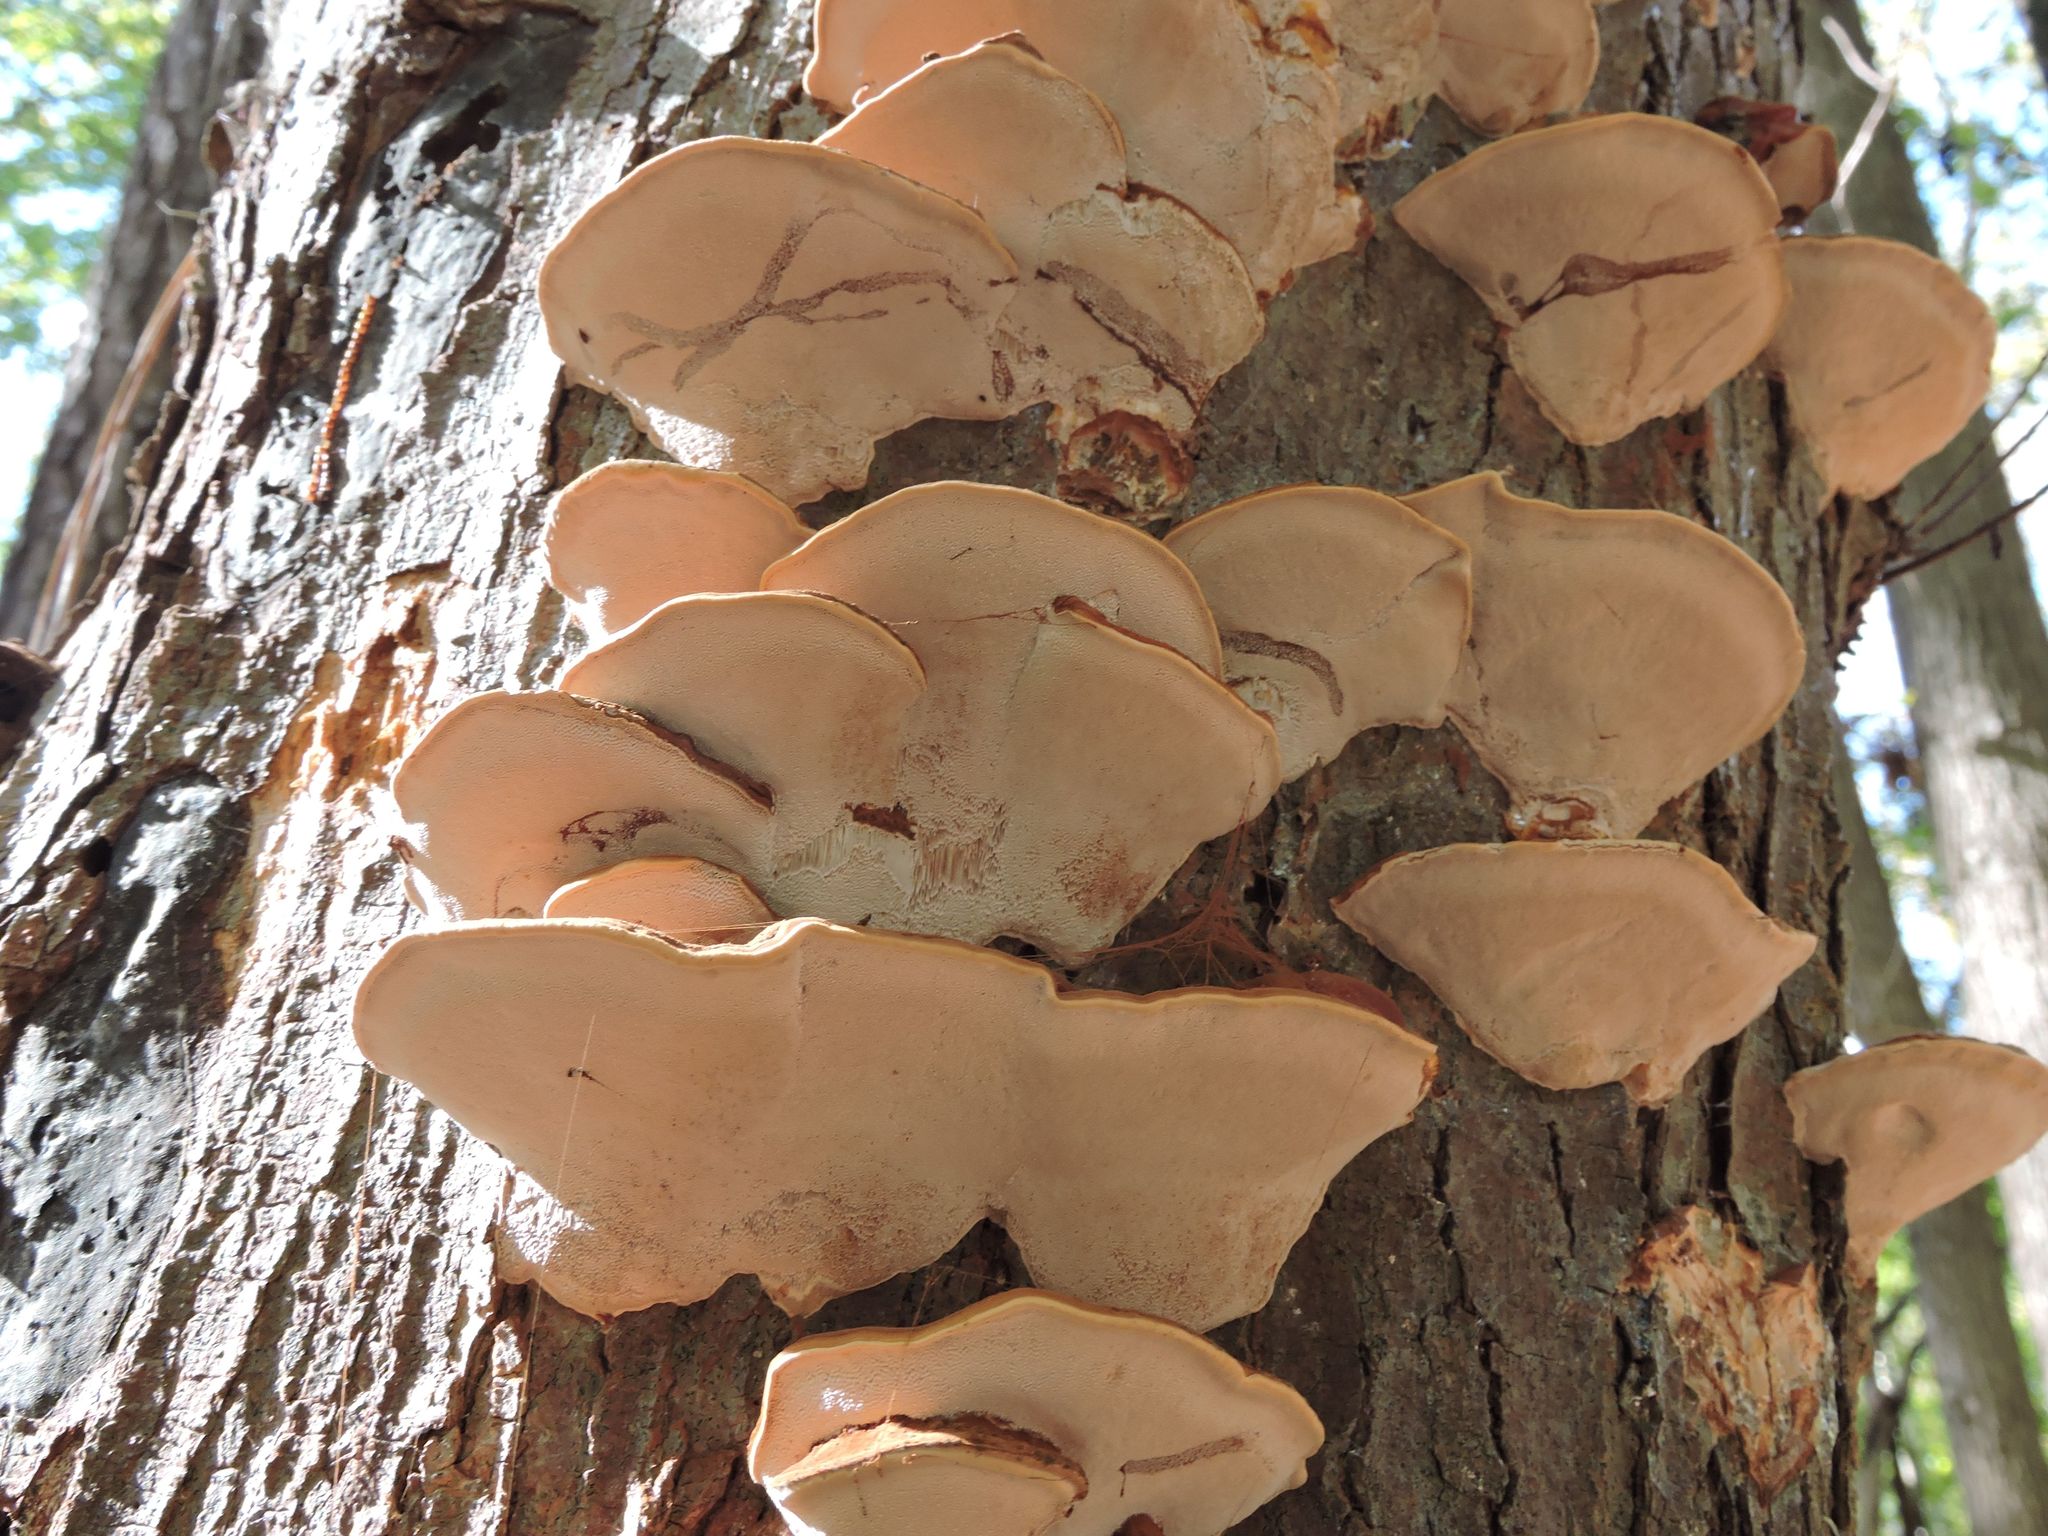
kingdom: Fungi
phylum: Basidiomycota
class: Agaricomycetes
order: Polyporales
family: Polyporaceae
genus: Ganoderma
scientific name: Ganoderma applanatum
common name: Artist's bracket
